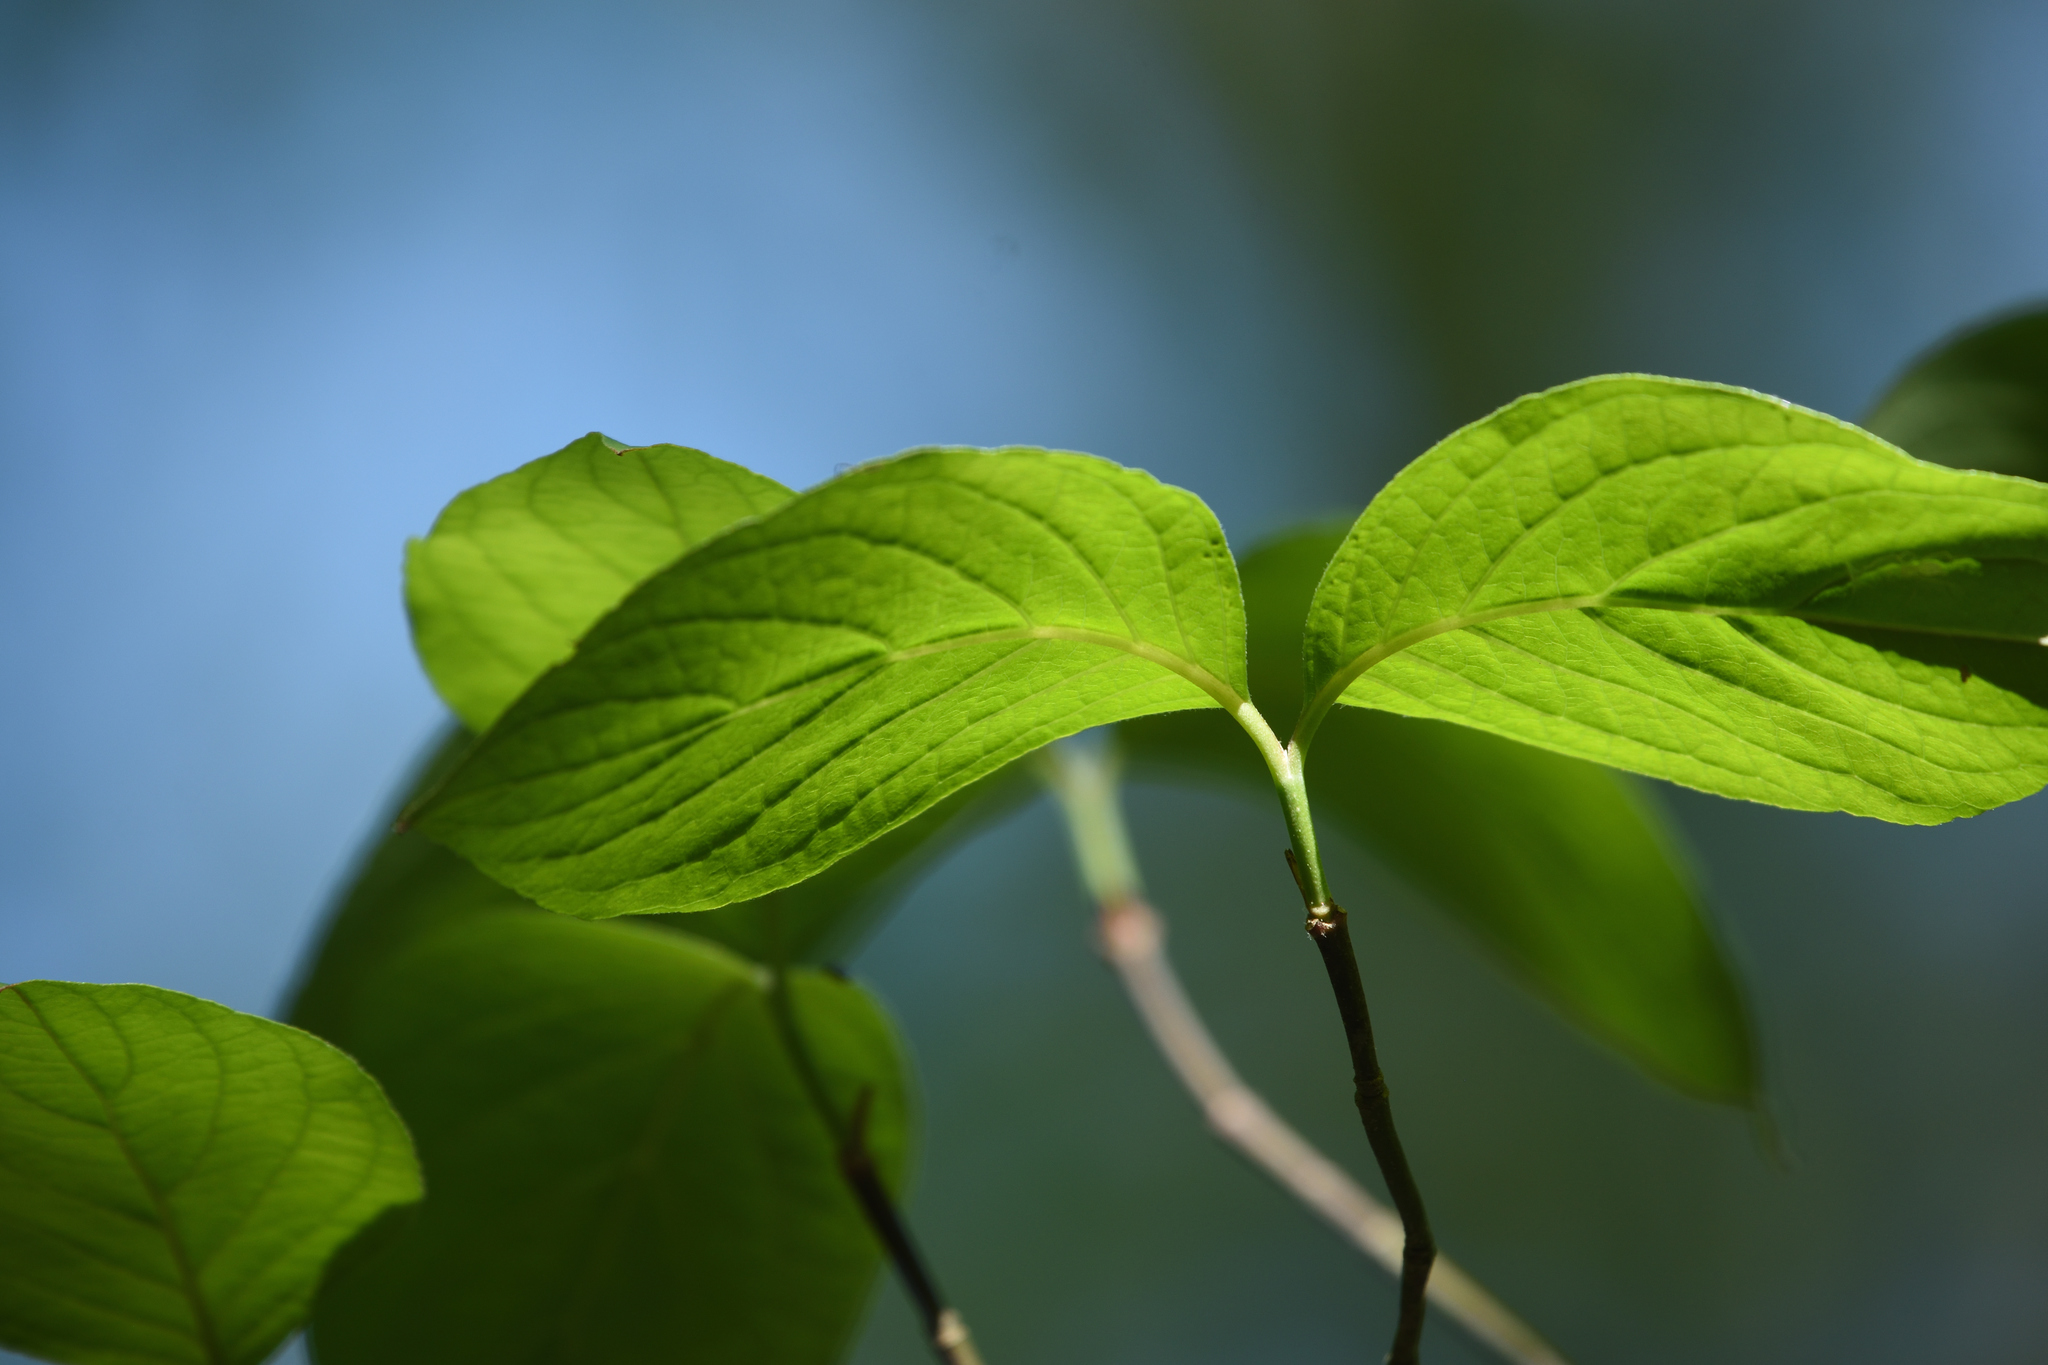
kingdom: Plantae
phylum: Tracheophyta
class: Magnoliopsida
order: Cornales
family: Cornaceae
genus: Cornus
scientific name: Cornus florida
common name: Flowering dogwood
